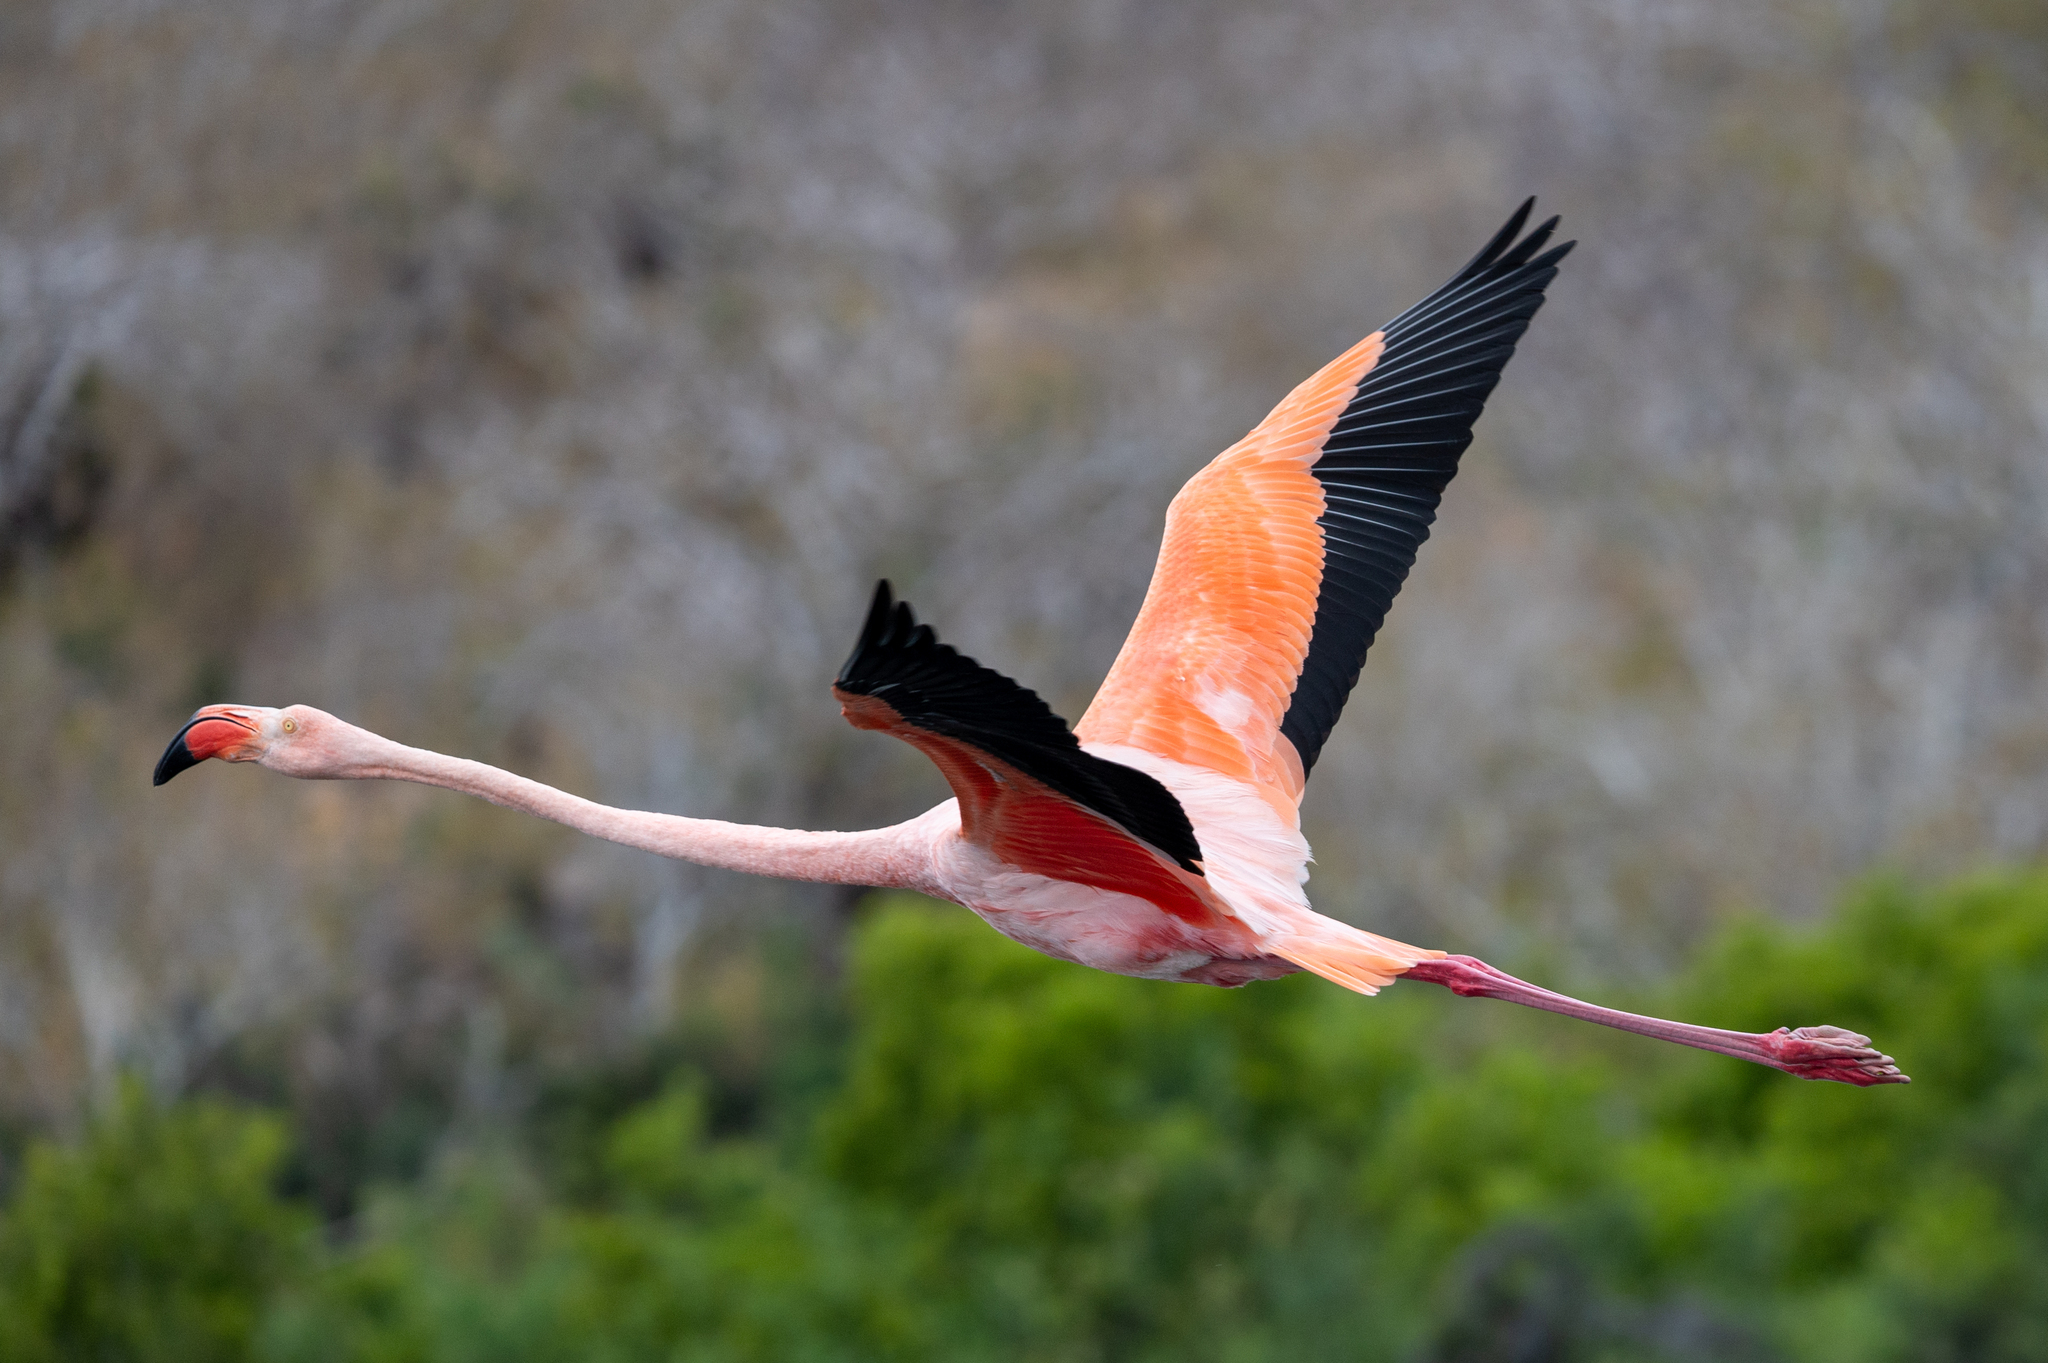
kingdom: Animalia
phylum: Chordata
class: Aves
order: Phoenicopteriformes
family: Phoenicopteridae
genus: Phoenicopterus
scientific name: Phoenicopterus ruber
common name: American flamingo
